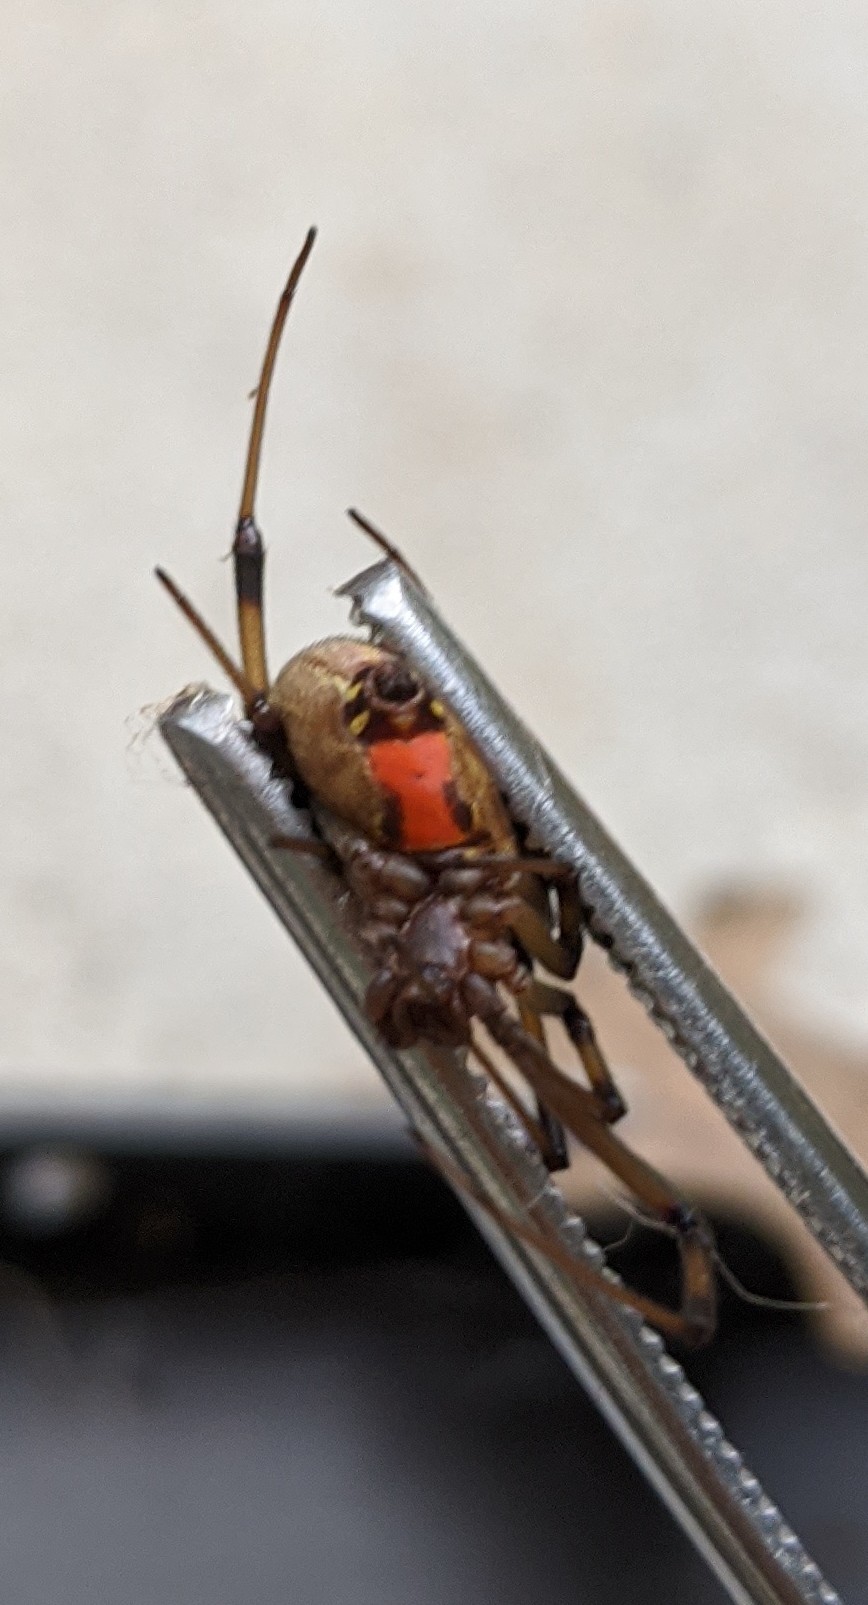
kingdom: Animalia
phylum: Arthropoda
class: Arachnida
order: Araneae
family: Theridiidae
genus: Latrodectus
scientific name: Latrodectus geometricus
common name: Brown widow spider
